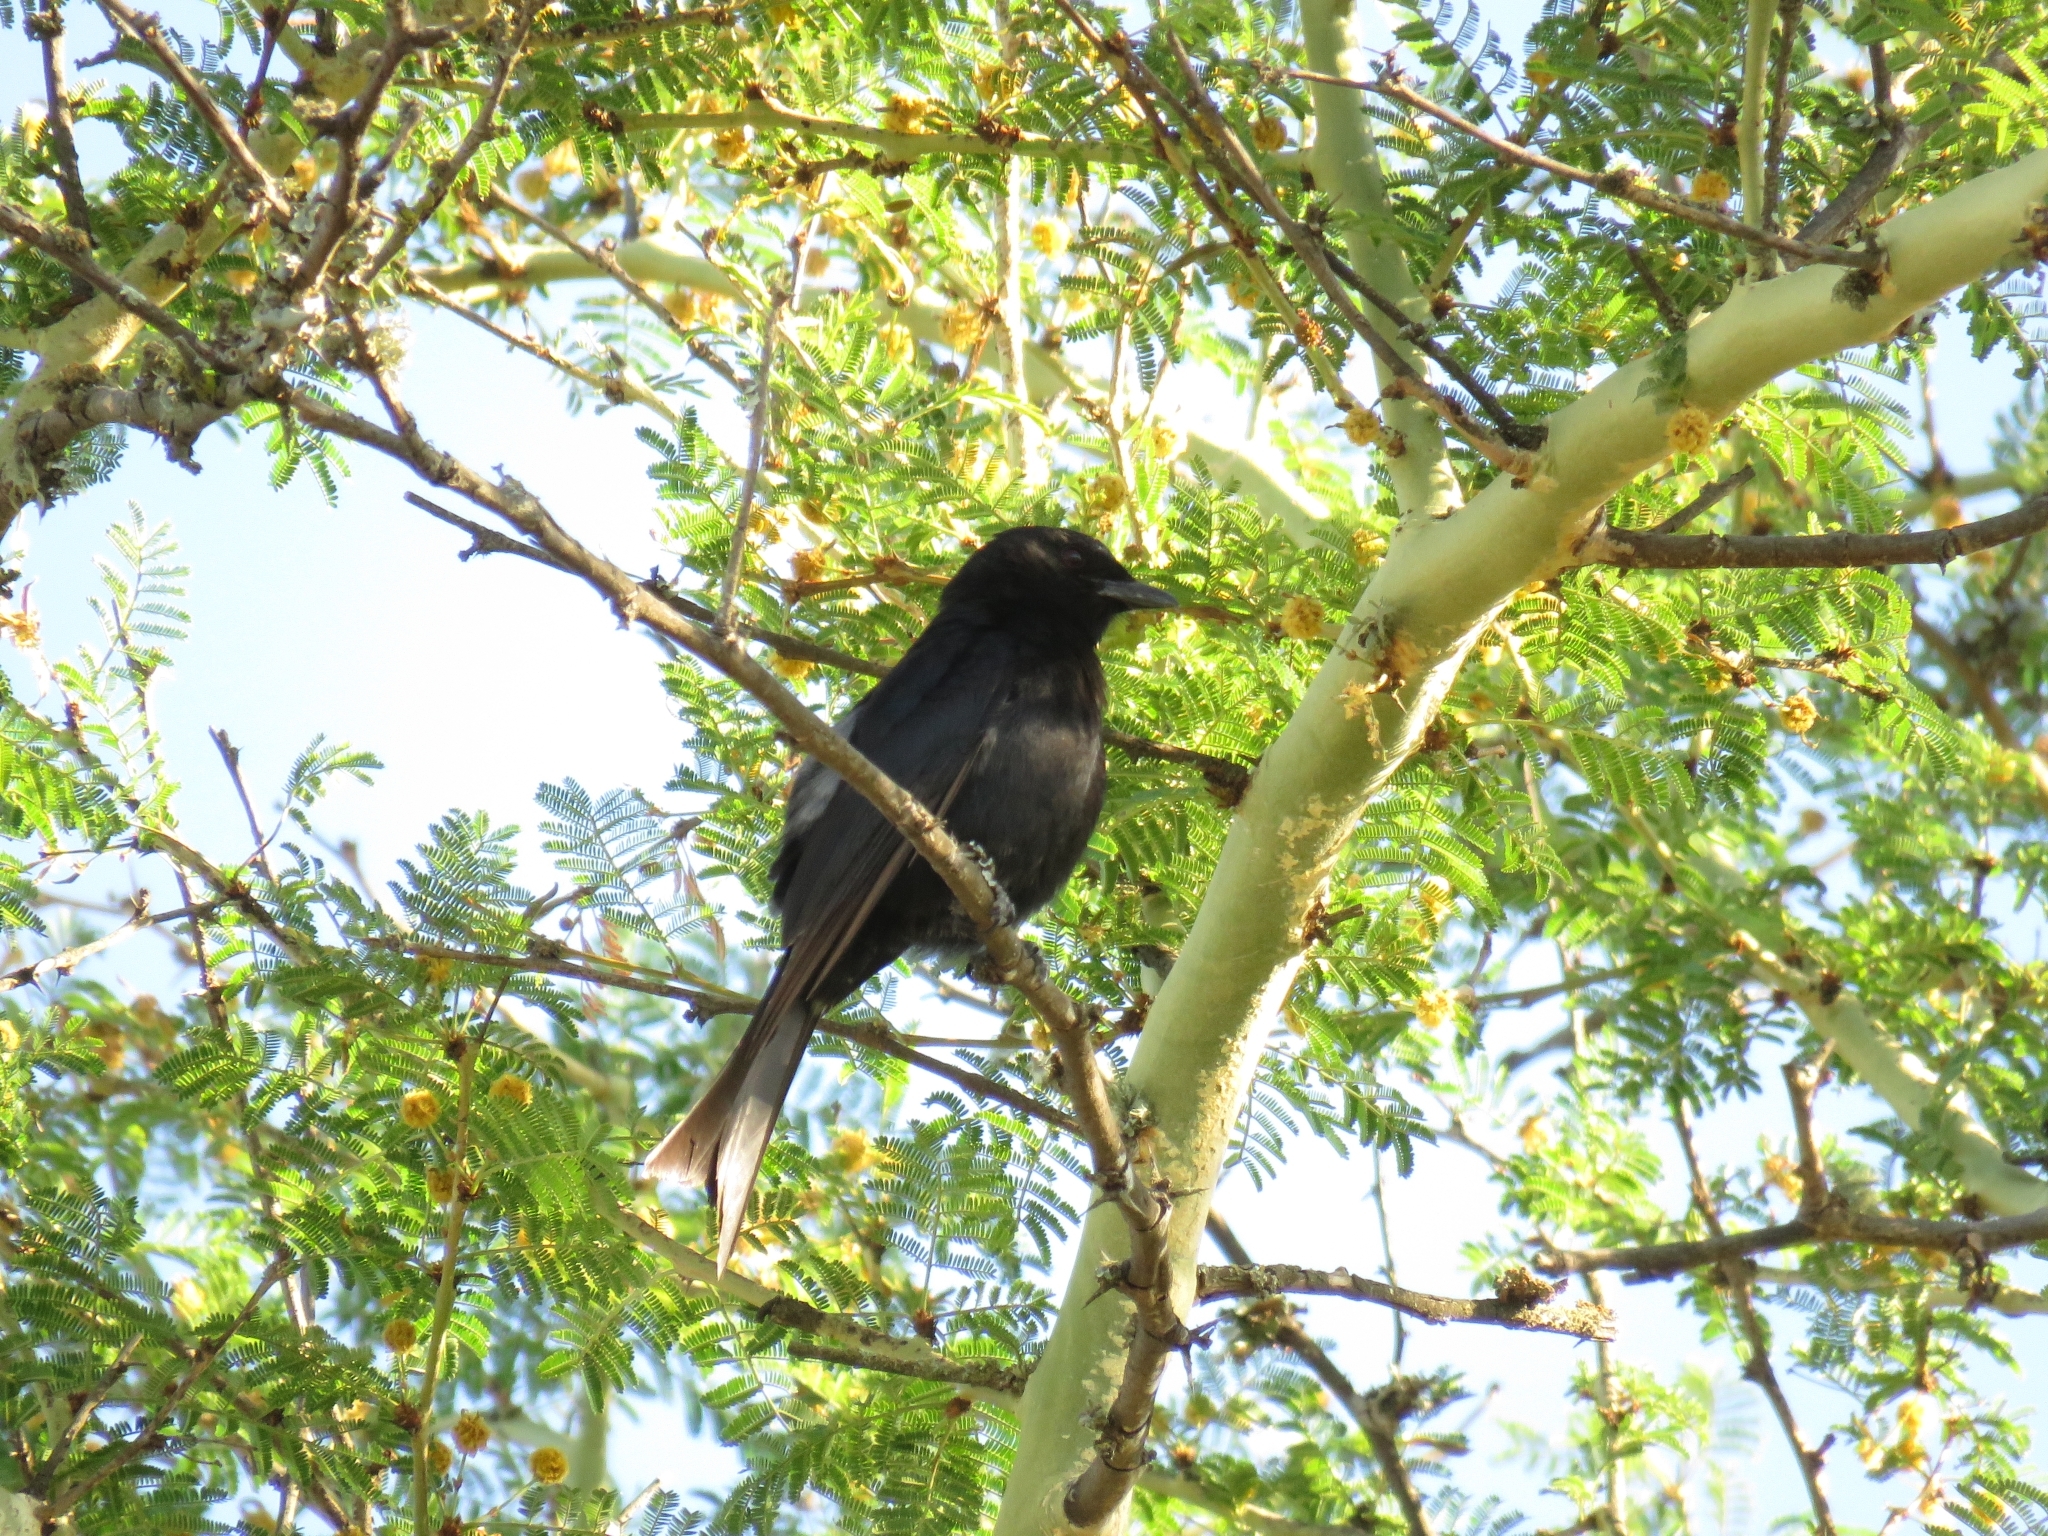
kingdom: Animalia
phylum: Chordata
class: Aves
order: Passeriformes
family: Dicruridae
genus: Dicrurus
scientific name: Dicrurus adsimilis
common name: Fork-tailed drongo
